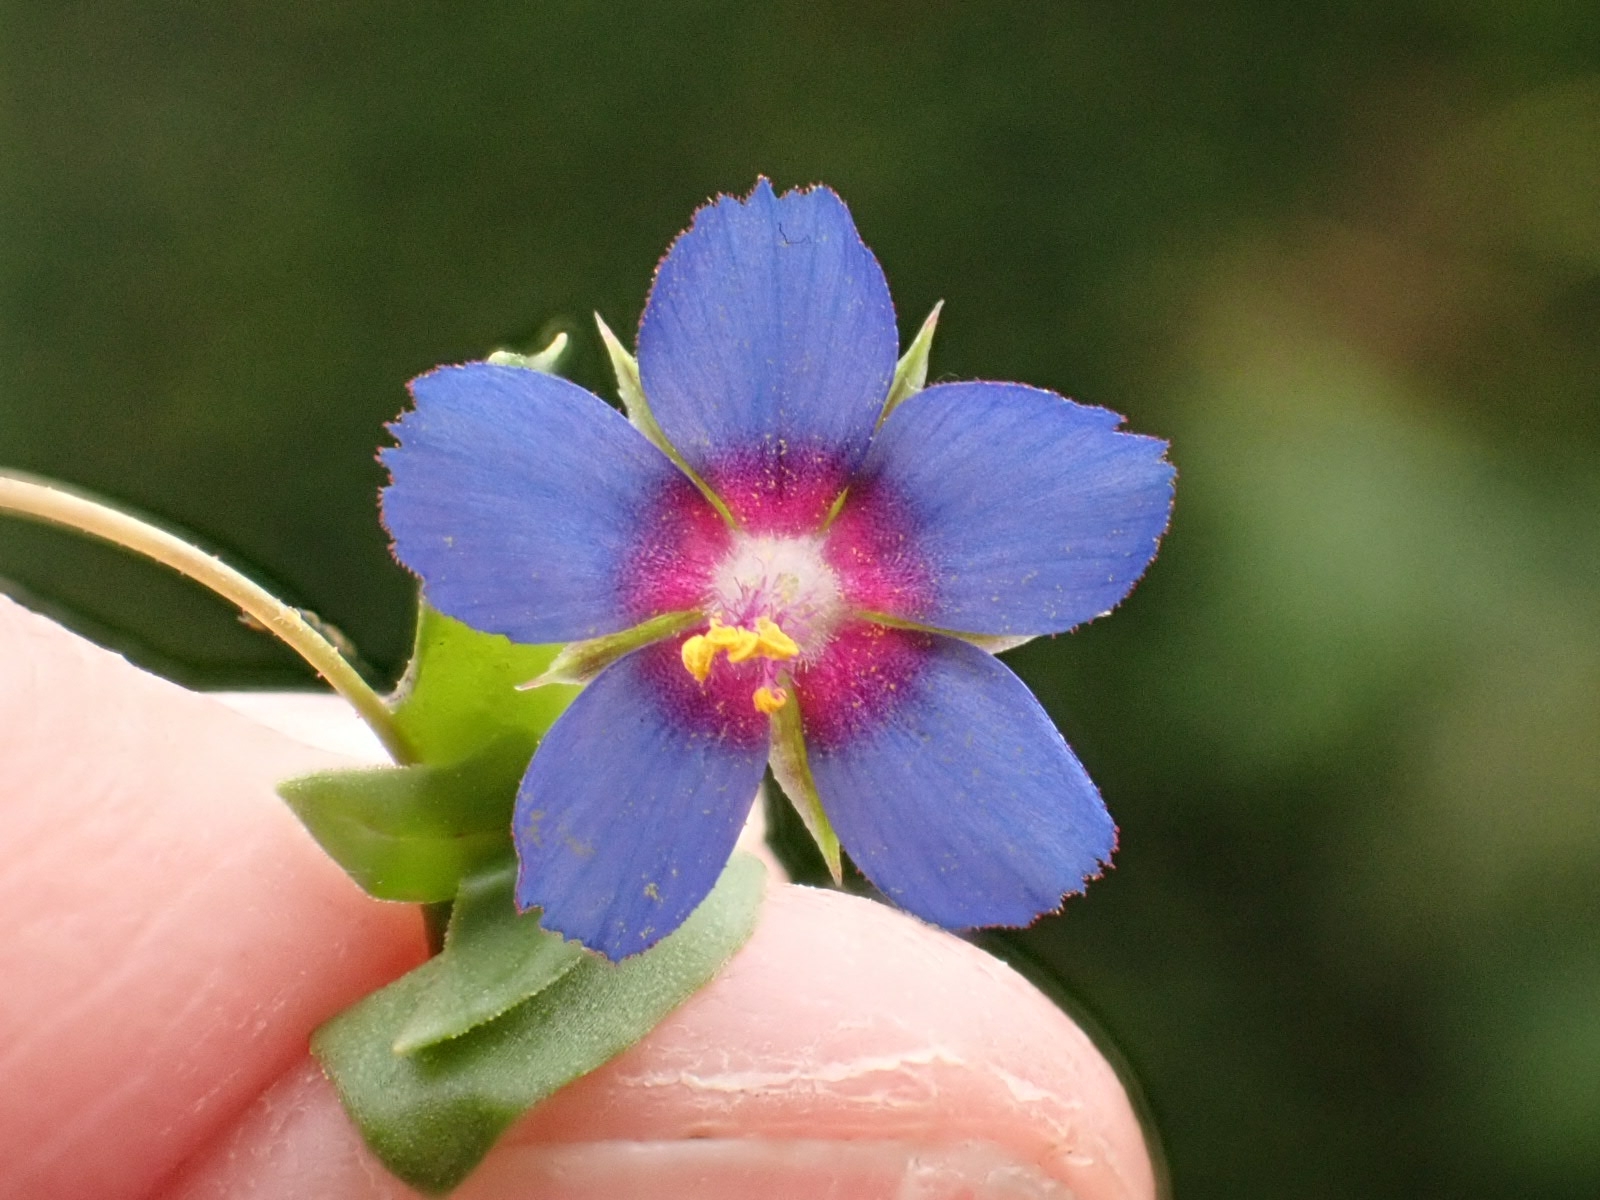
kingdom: Plantae
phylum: Tracheophyta
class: Magnoliopsida
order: Ericales
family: Primulaceae
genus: Lysimachia
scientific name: Lysimachia loeflingii
